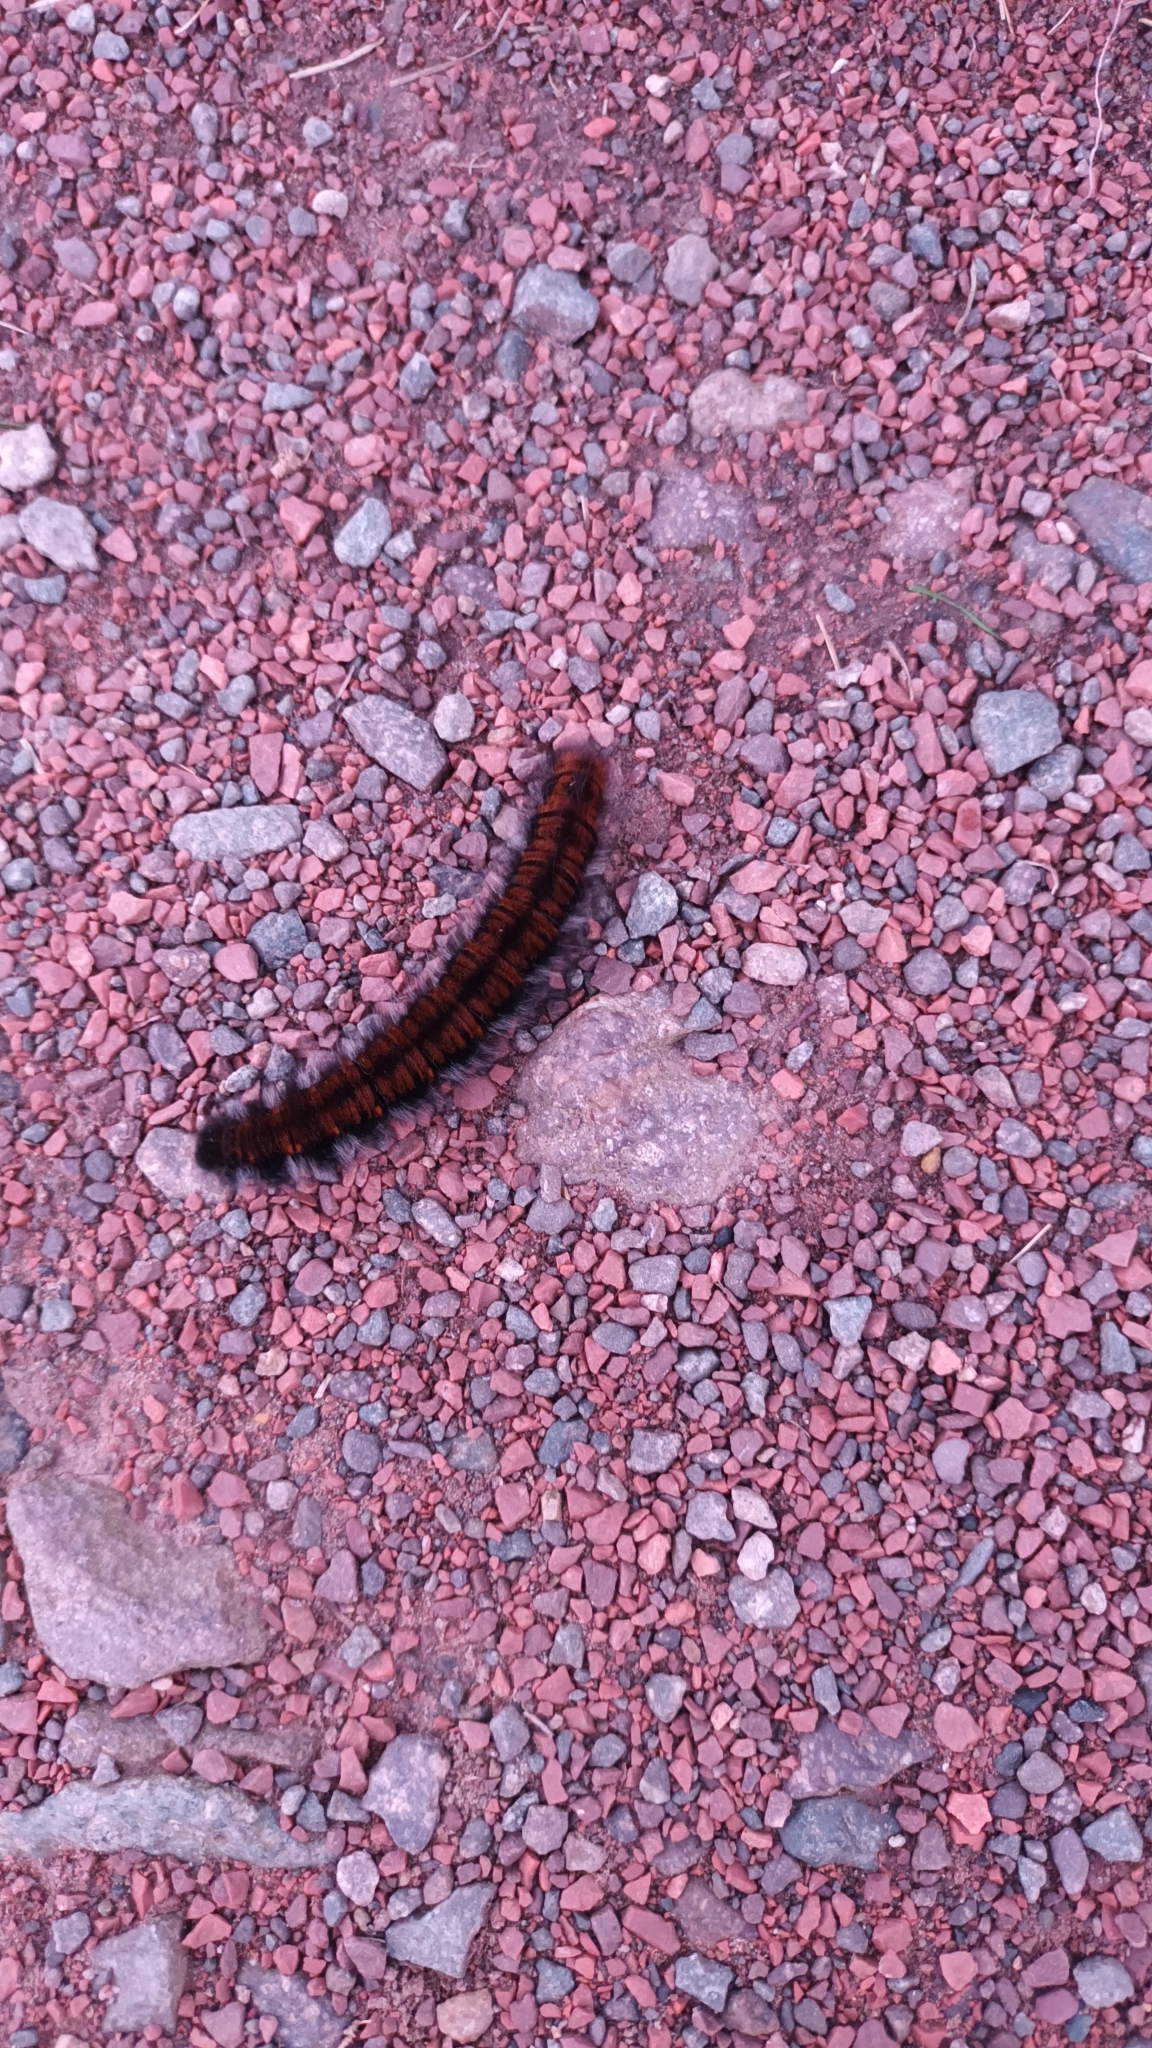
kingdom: Animalia
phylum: Arthropoda
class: Insecta
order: Lepidoptera
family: Lasiocampidae
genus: Macrothylacia
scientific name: Macrothylacia rubi
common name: Fox moth
